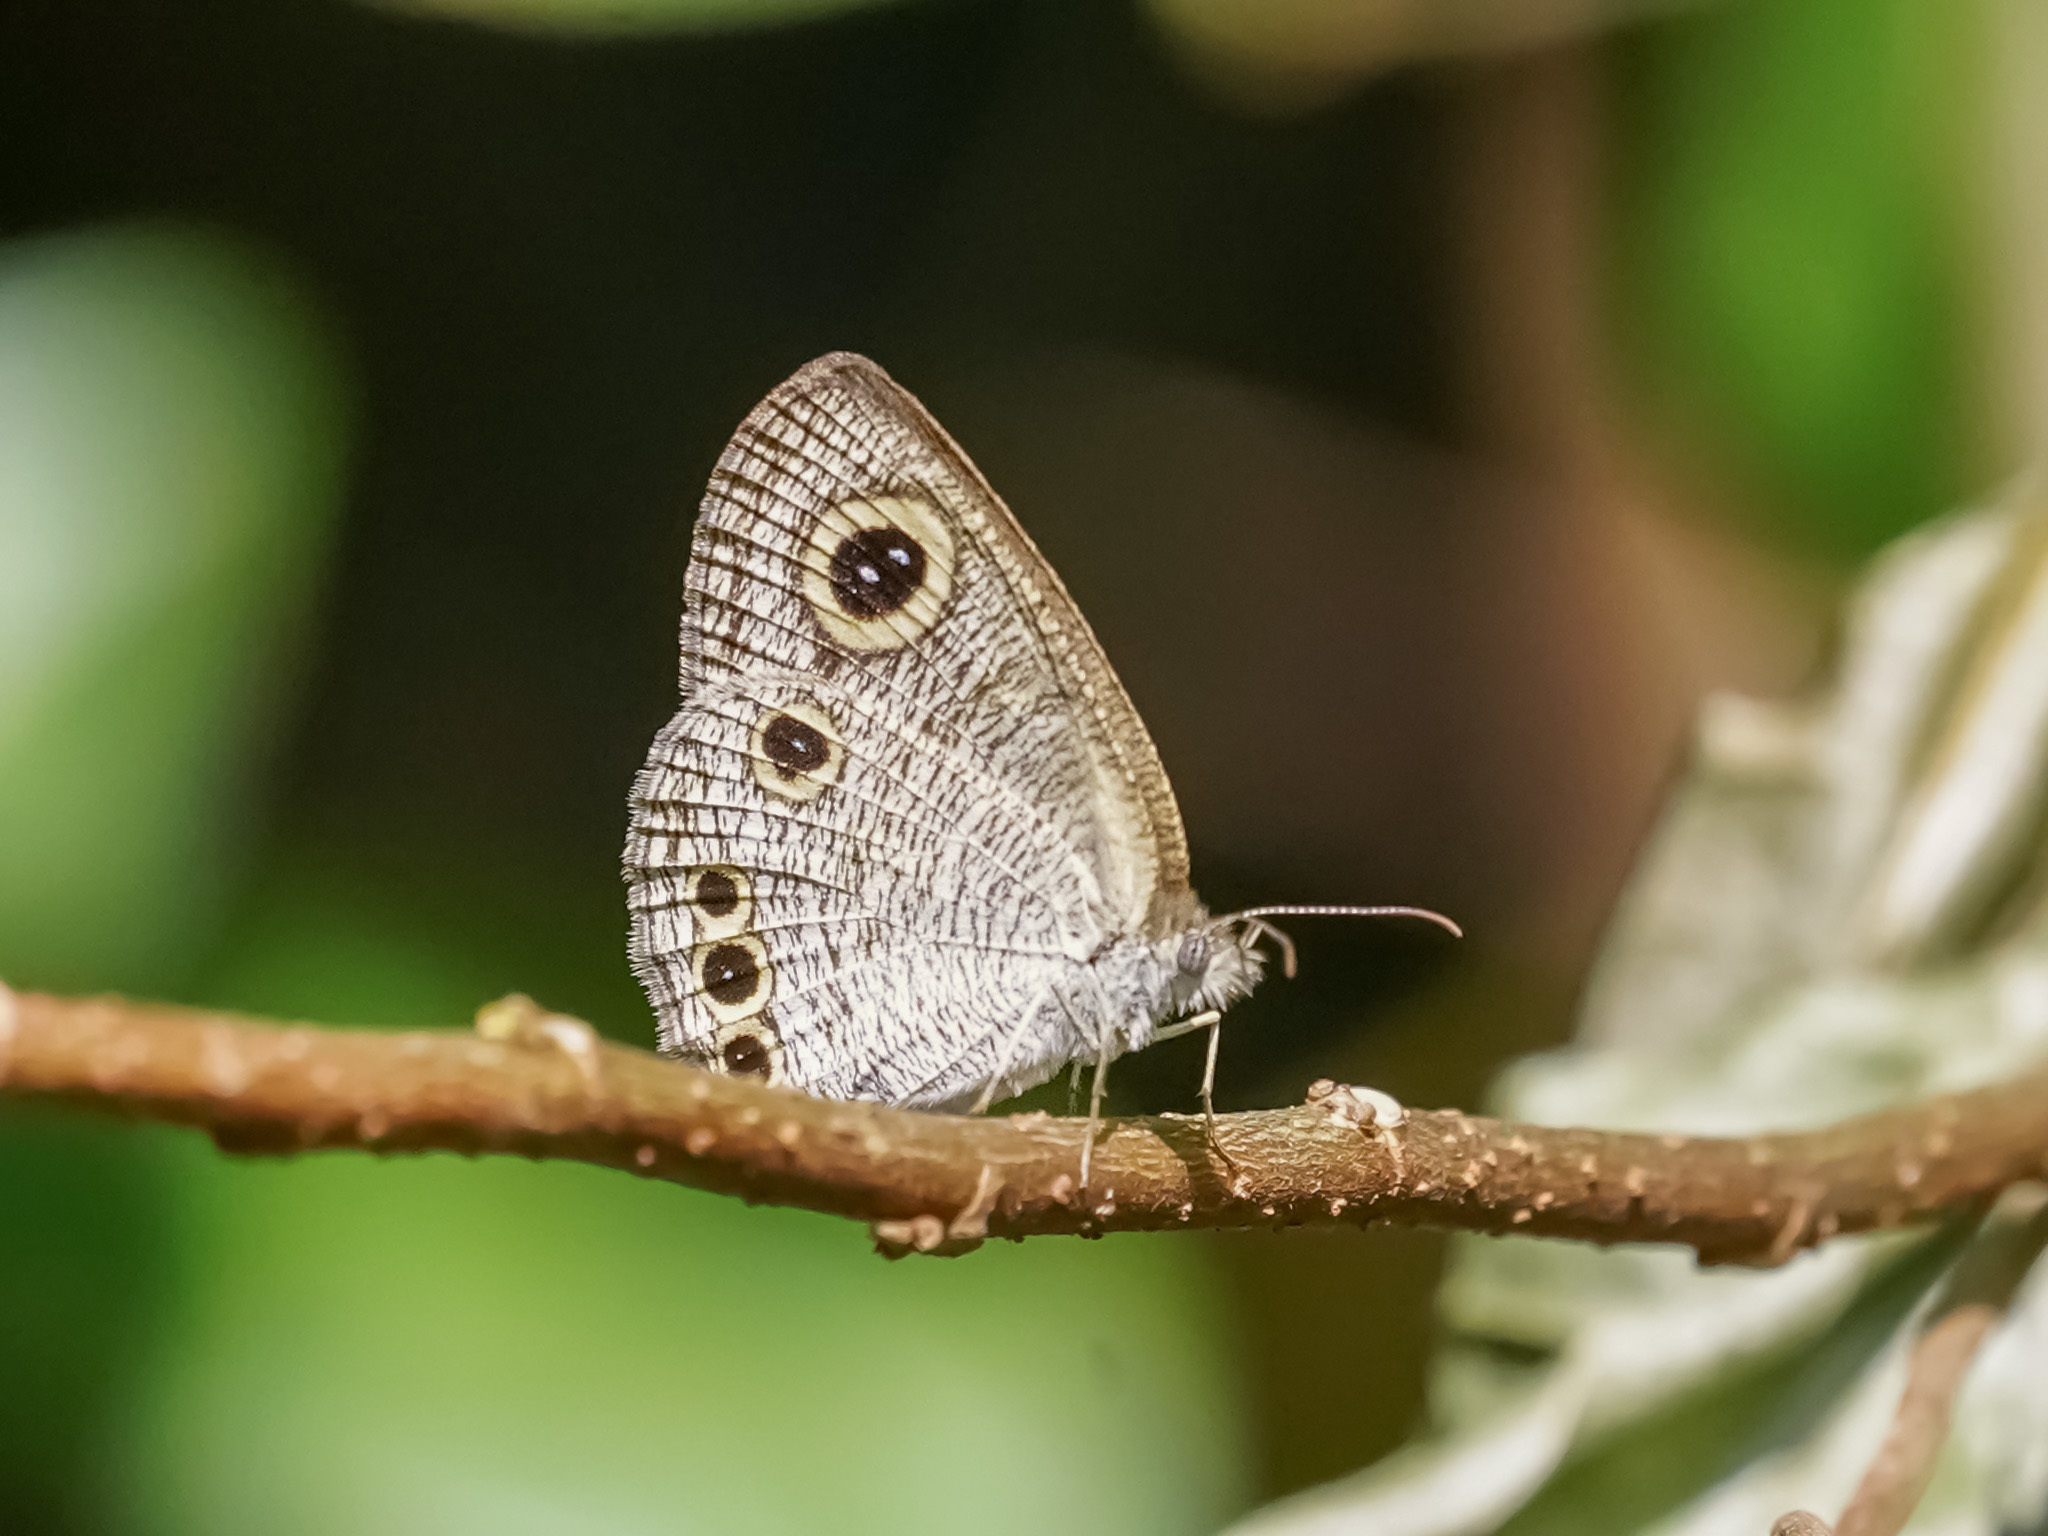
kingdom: Animalia
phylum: Arthropoda
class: Insecta
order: Lepidoptera
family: Nymphalidae
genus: Ypthima
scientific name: Ypthima huebneri
